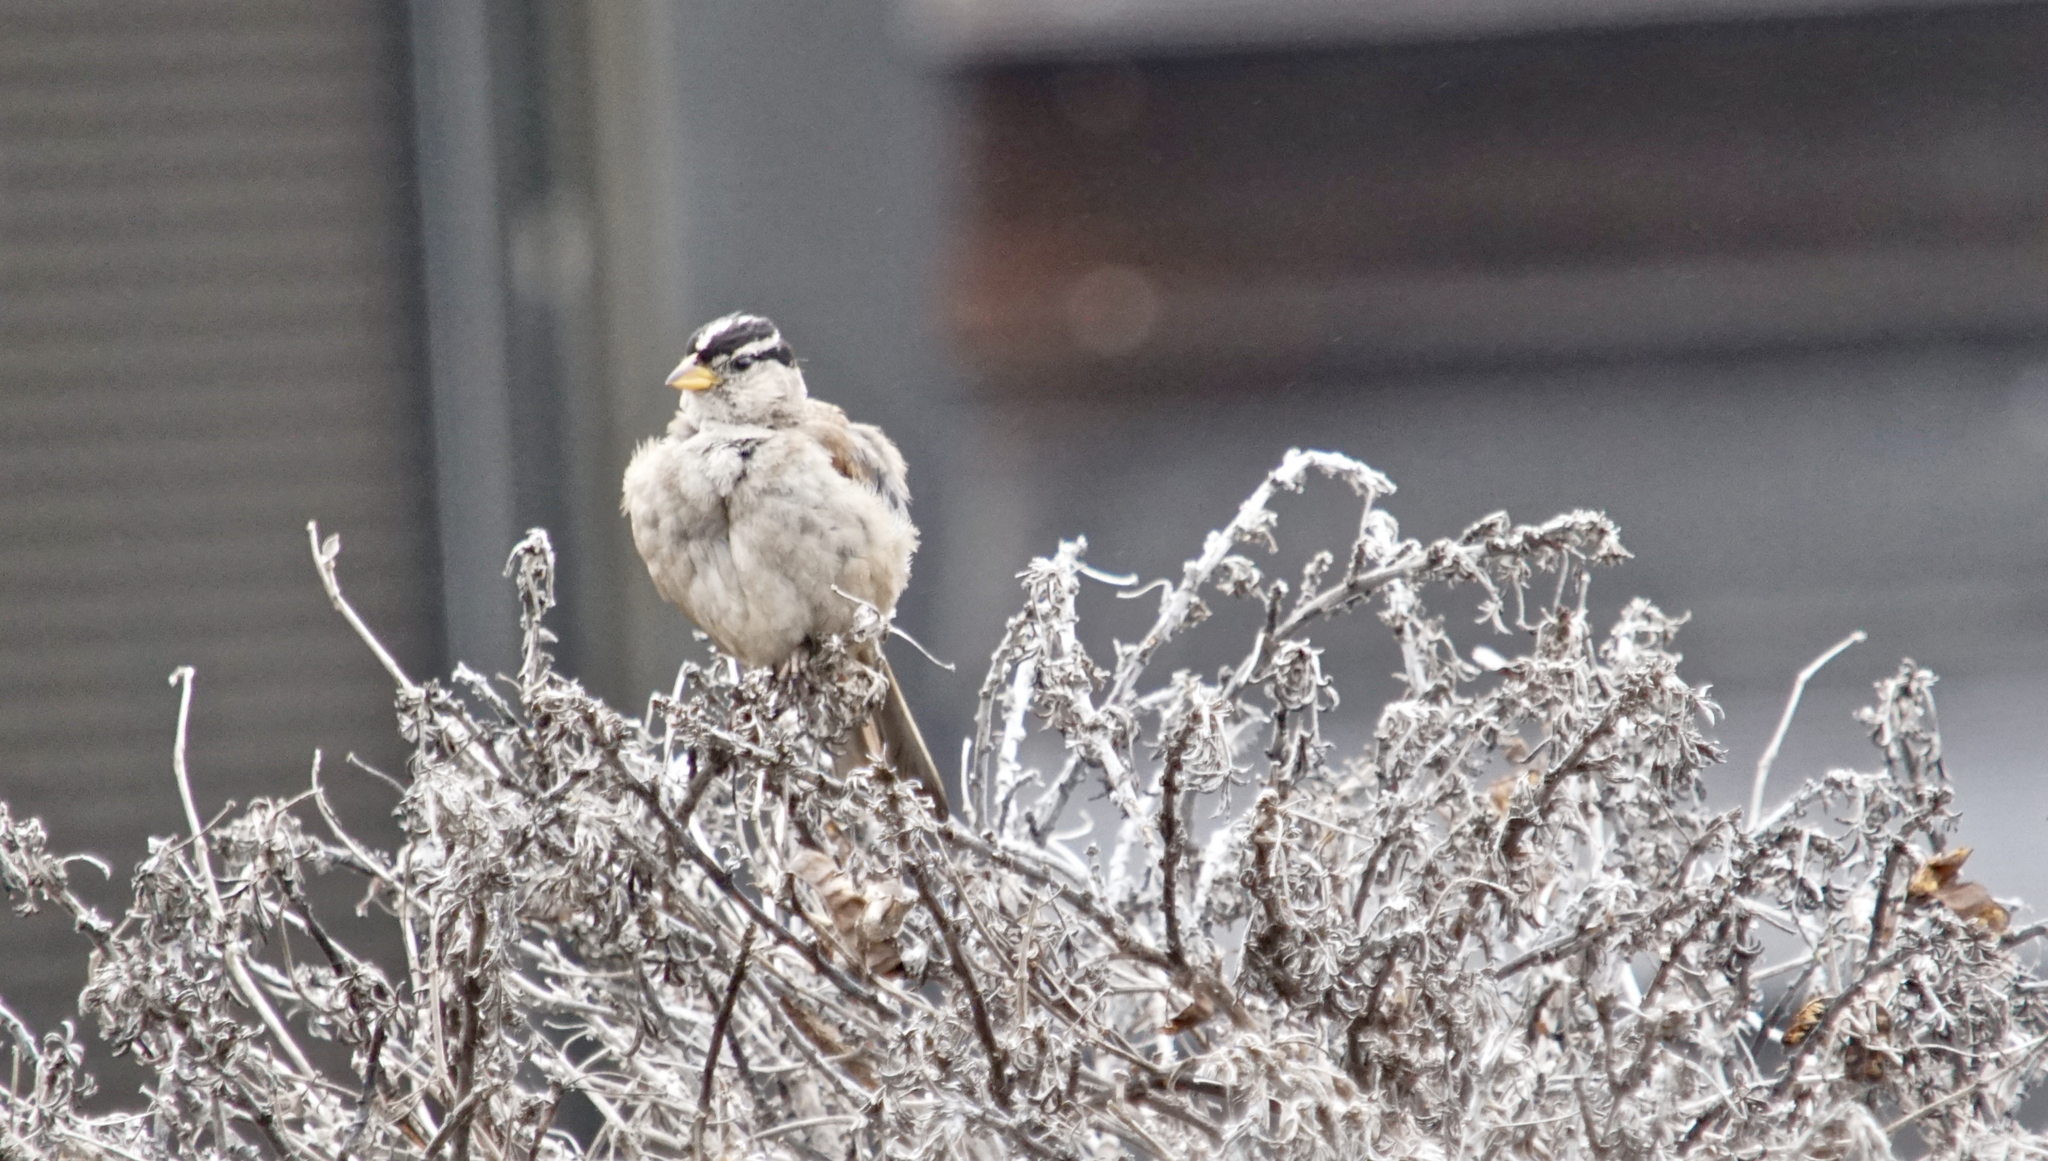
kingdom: Animalia
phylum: Chordata
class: Aves
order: Passeriformes
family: Passerellidae
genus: Zonotrichia
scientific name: Zonotrichia leucophrys
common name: White-crowned sparrow
